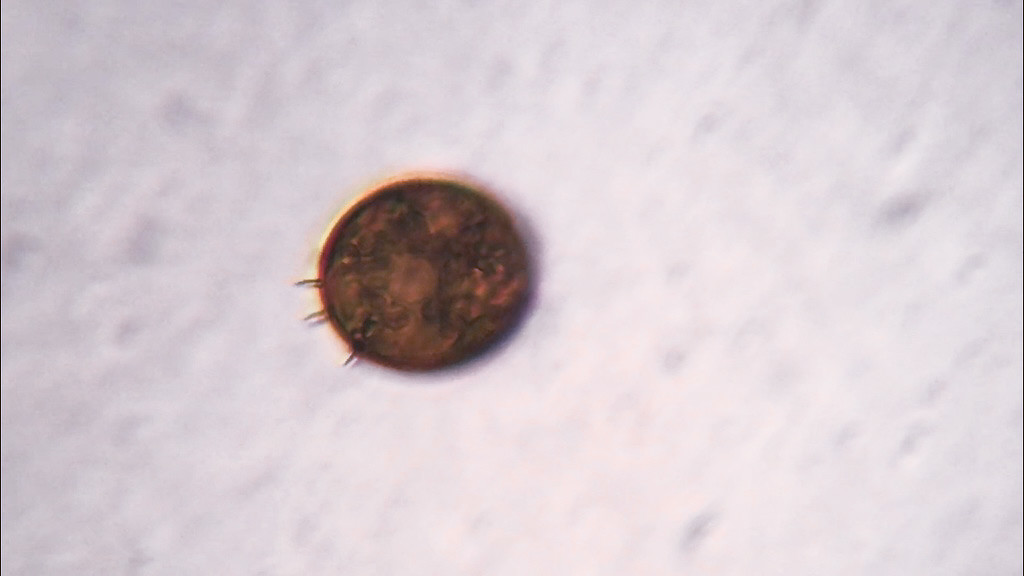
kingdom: Protozoa
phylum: Euglenozoa
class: Euglenoidea
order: Euglenida
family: Euglenaceae
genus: Trachelomonas
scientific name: Trachelomonas armata
